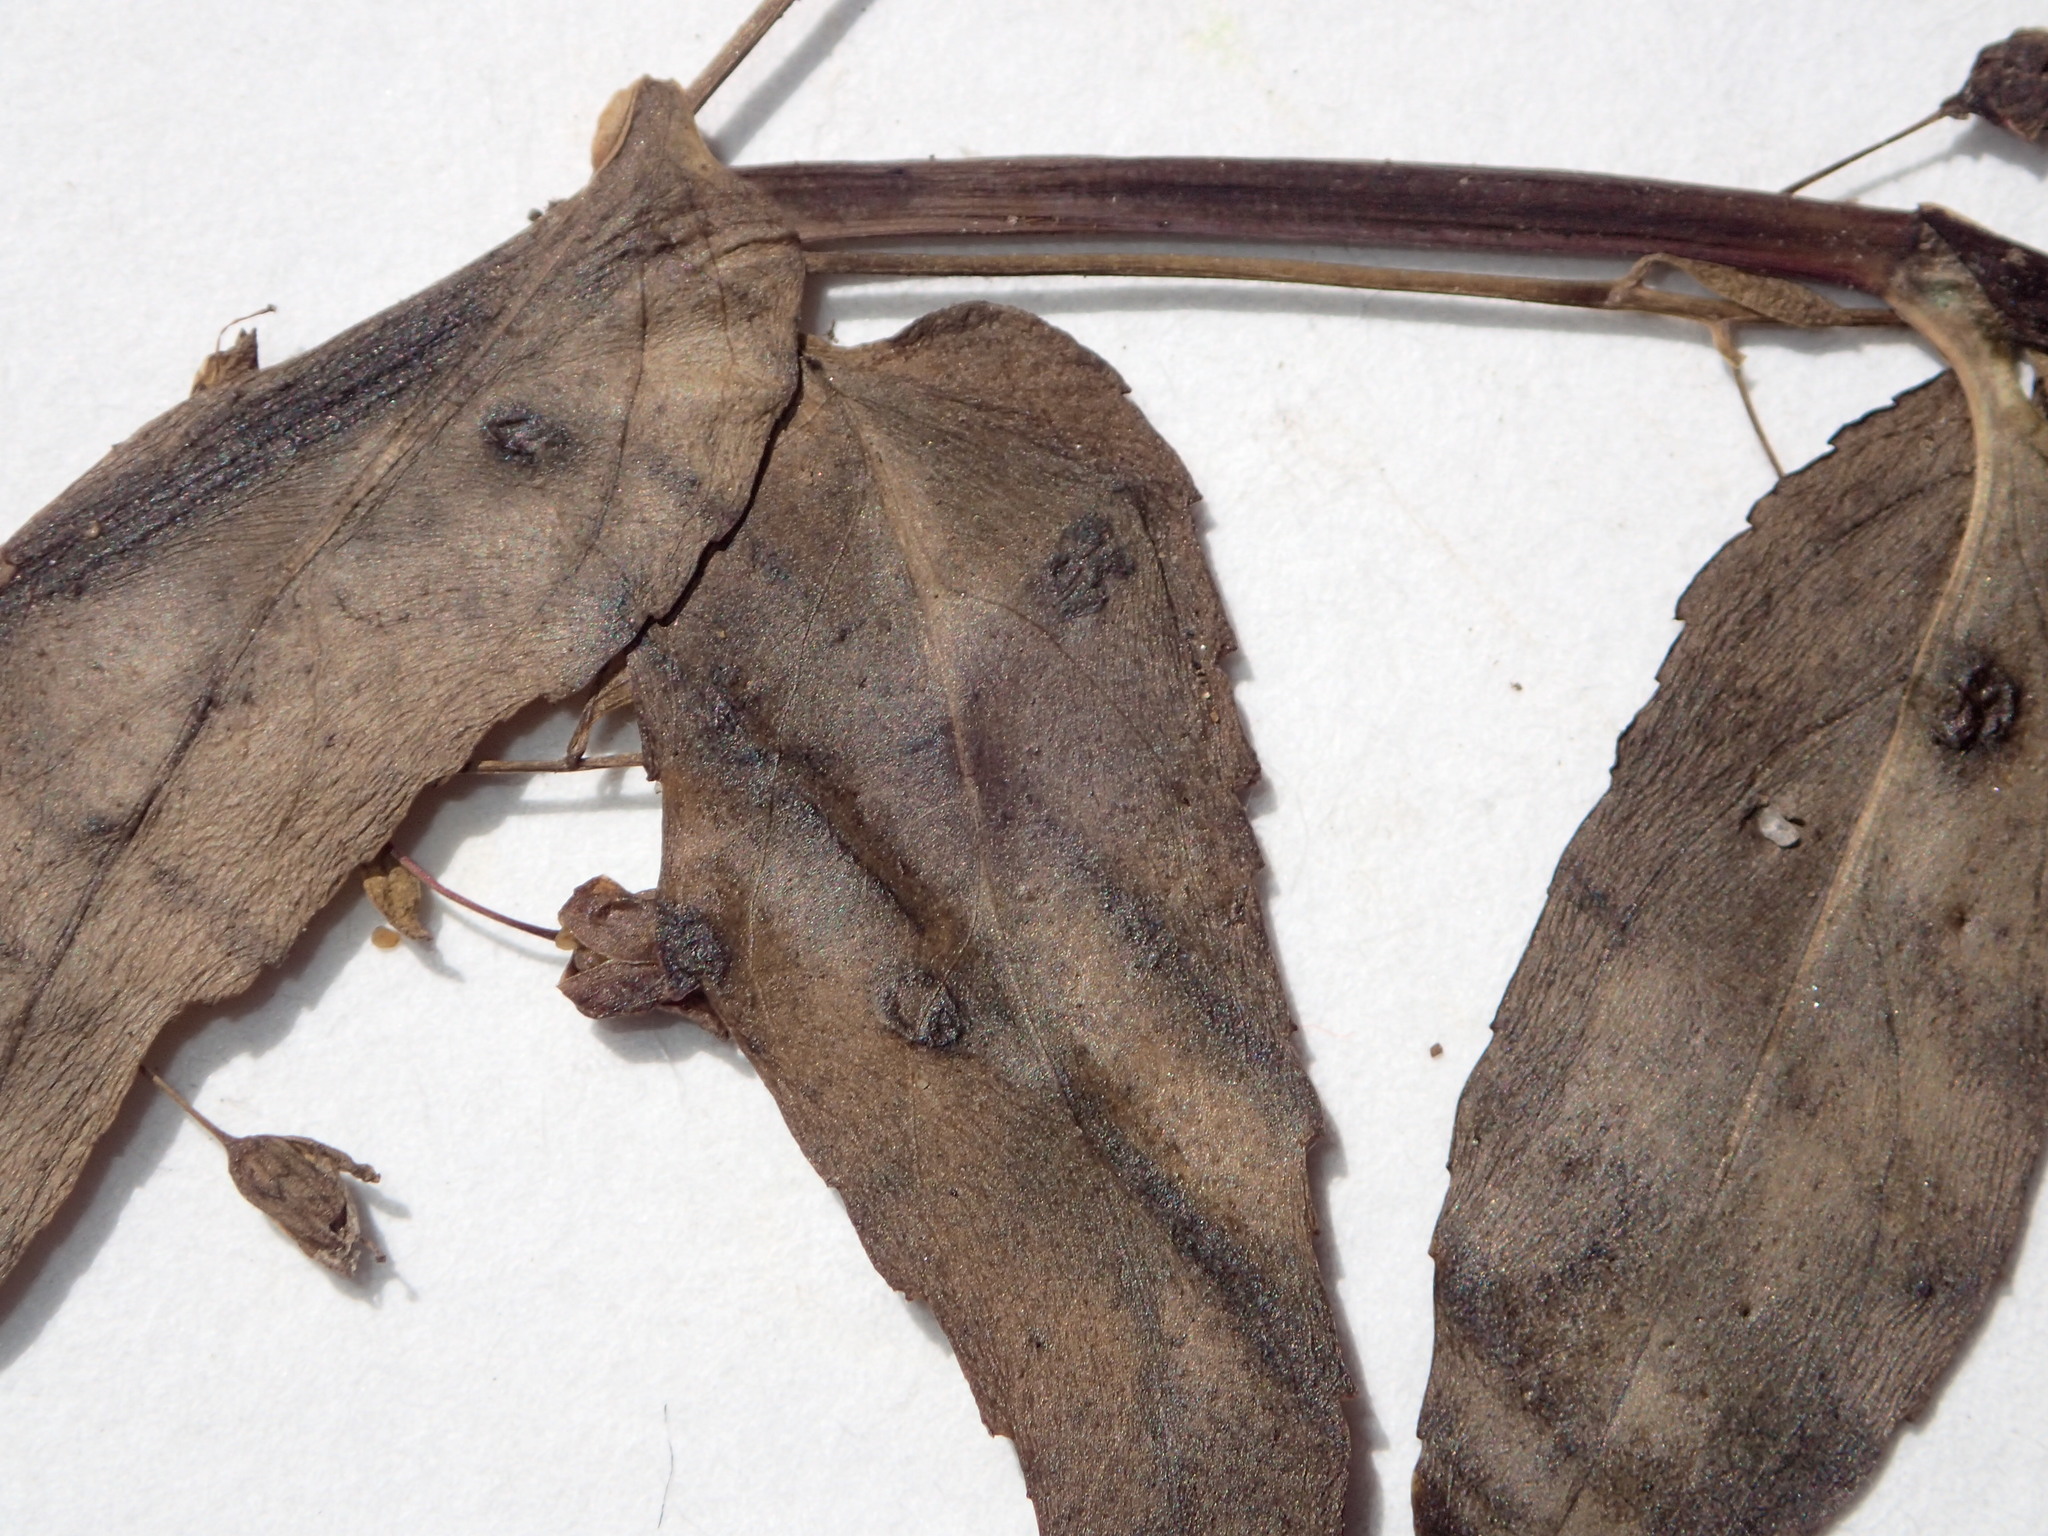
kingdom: Plantae
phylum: Tracheophyta
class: Magnoliopsida
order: Lamiales
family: Plantaginaceae
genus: Veronica
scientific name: Veronica americana
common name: American brooklime
